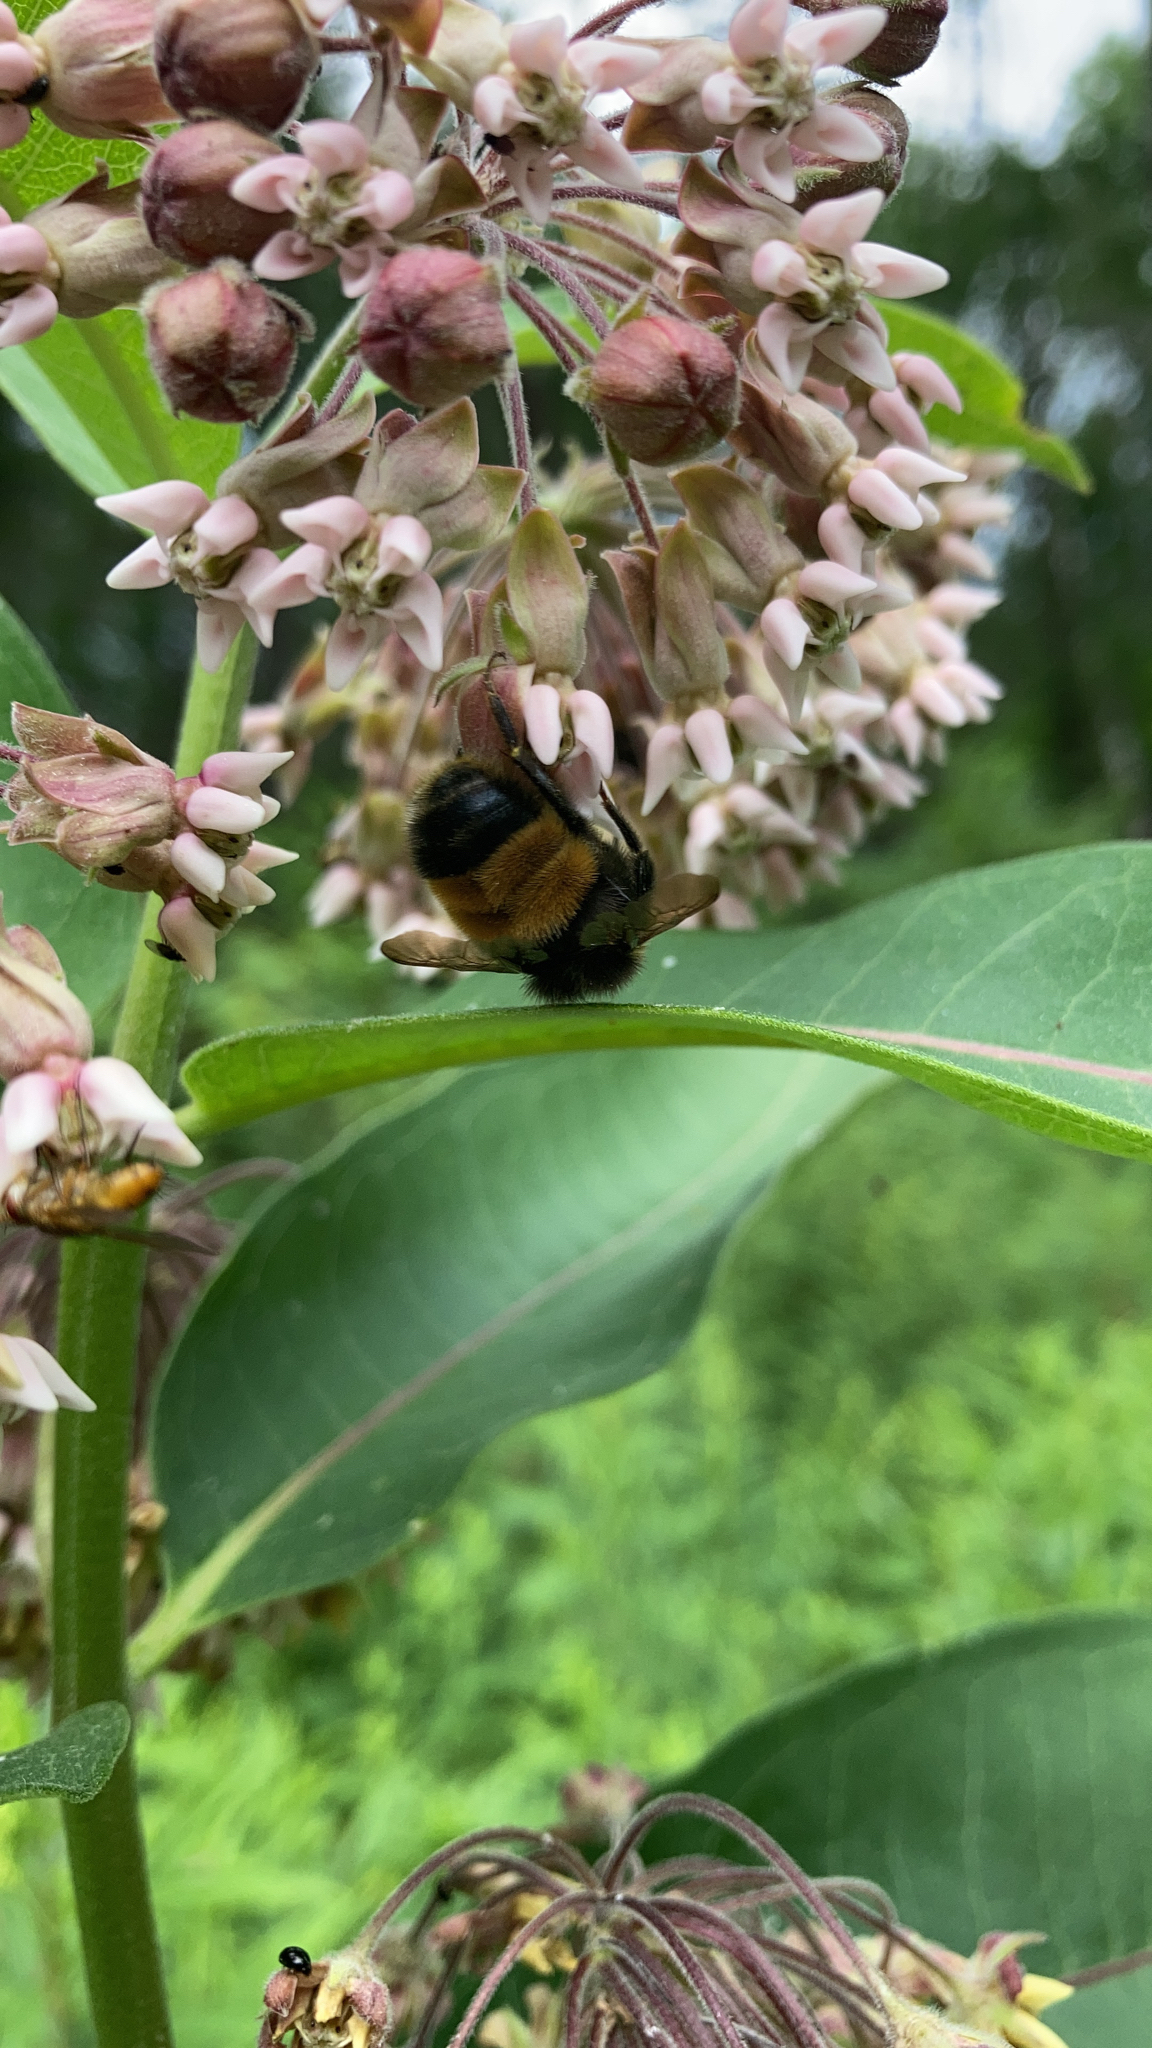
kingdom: Animalia
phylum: Arthropoda
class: Insecta
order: Hymenoptera
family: Apidae
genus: Bombus
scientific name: Bombus terricola
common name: Yellow-banded bumble bee
